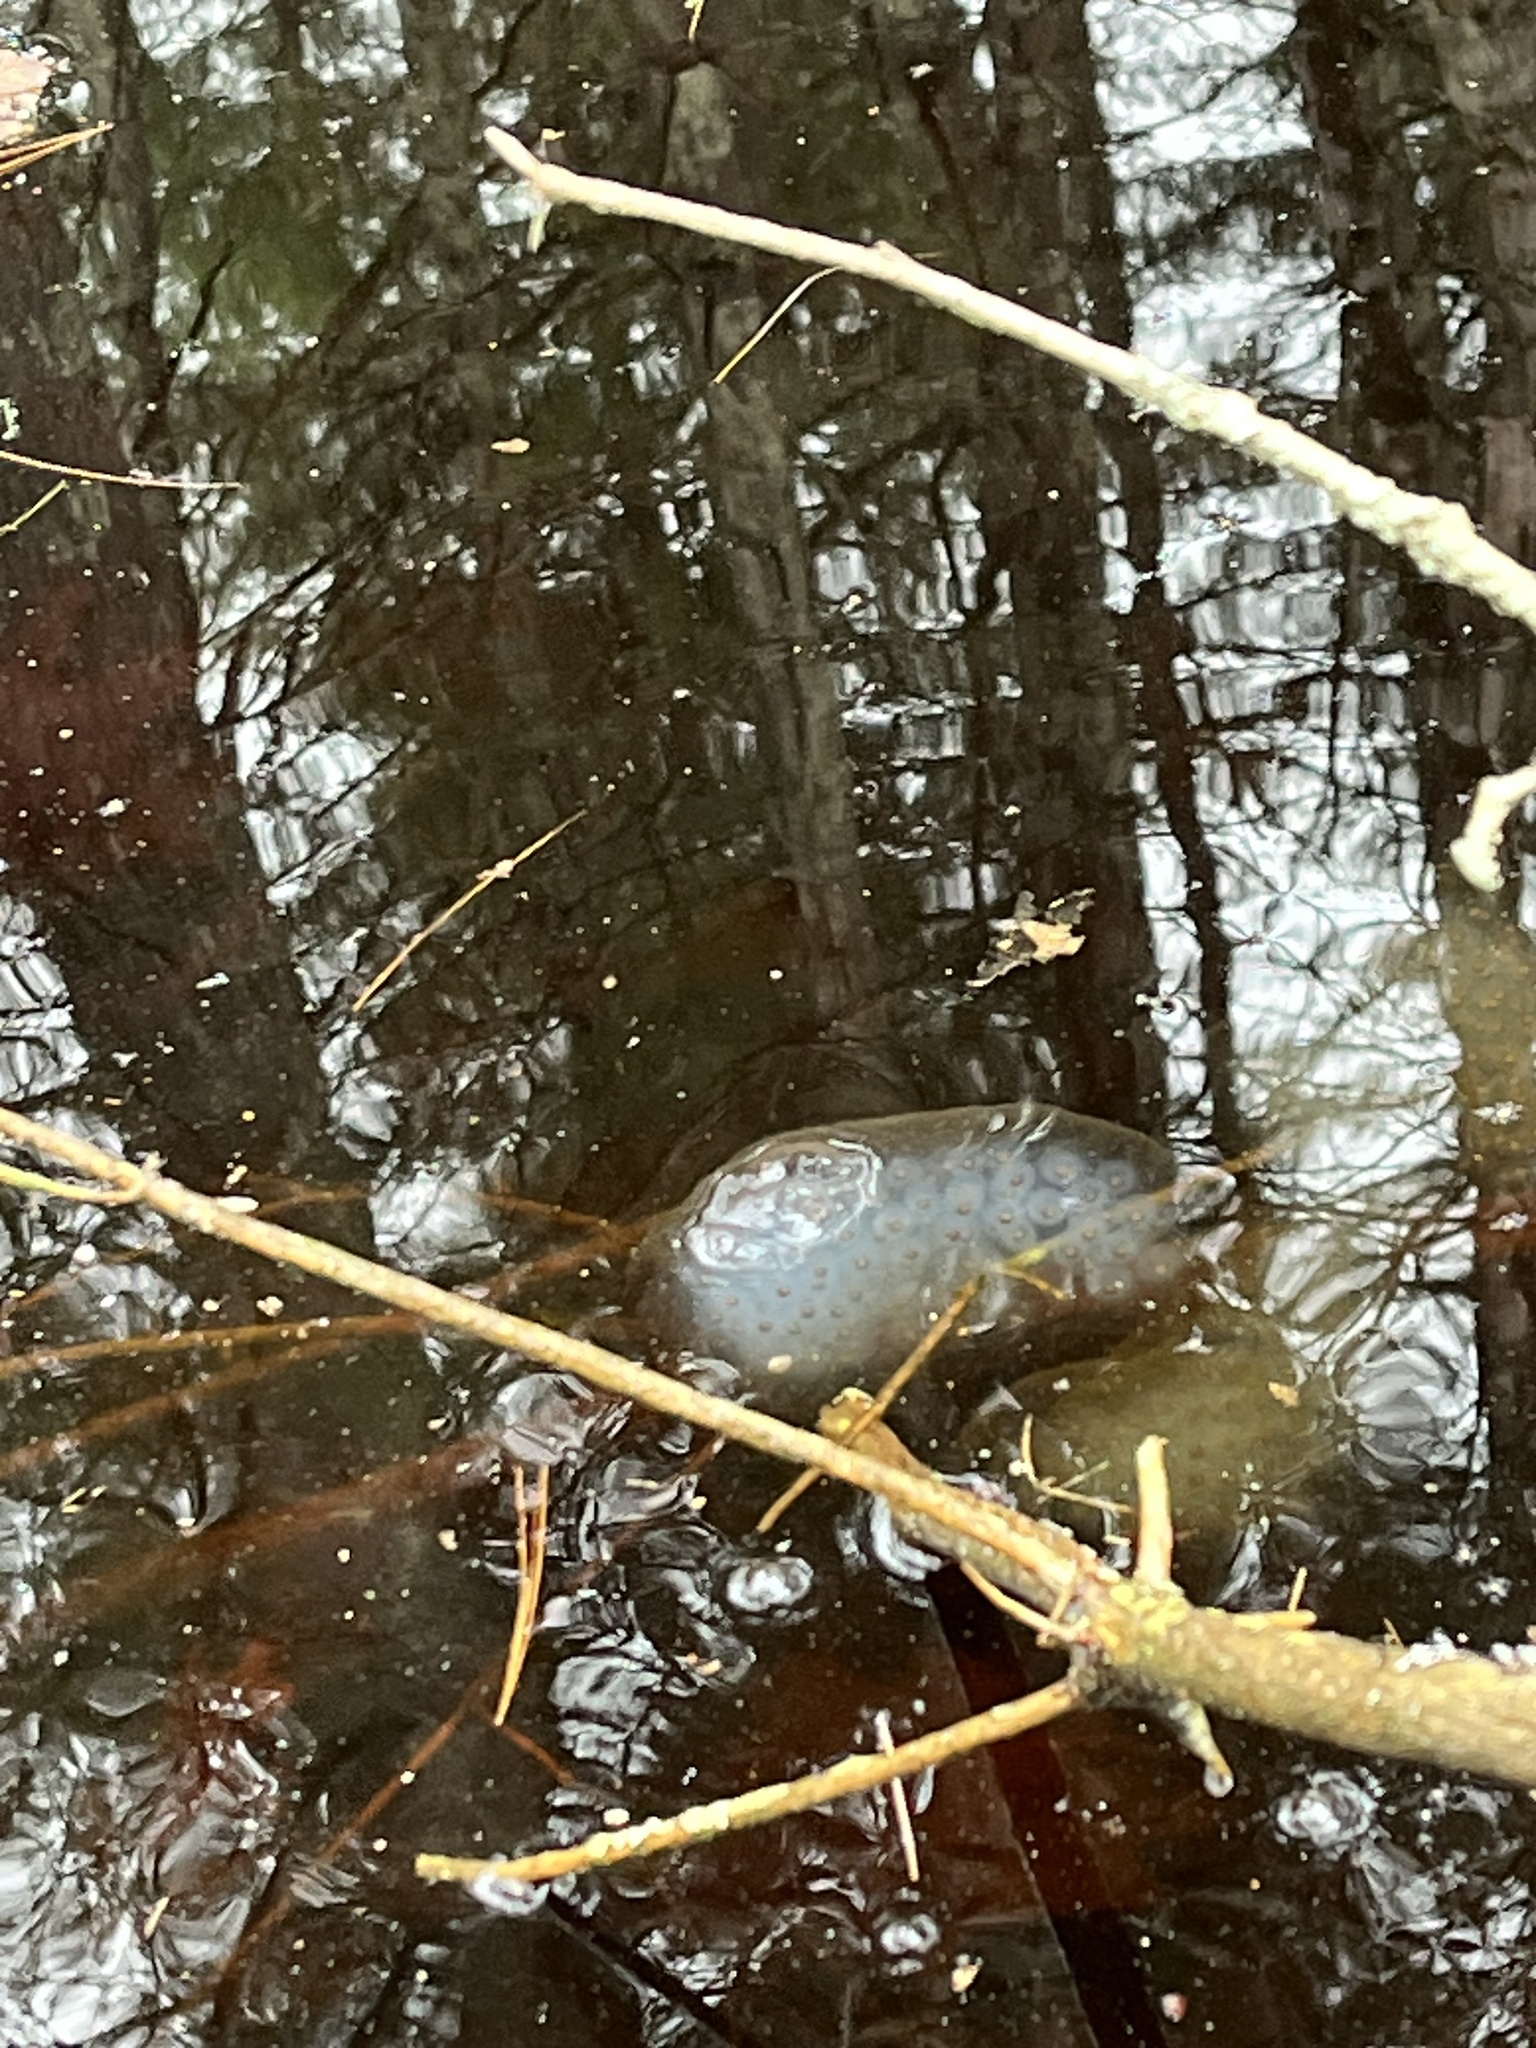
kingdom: Animalia
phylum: Chordata
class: Amphibia
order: Caudata
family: Ambystomatidae
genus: Ambystoma
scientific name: Ambystoma maculatum
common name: Spotted salamander
